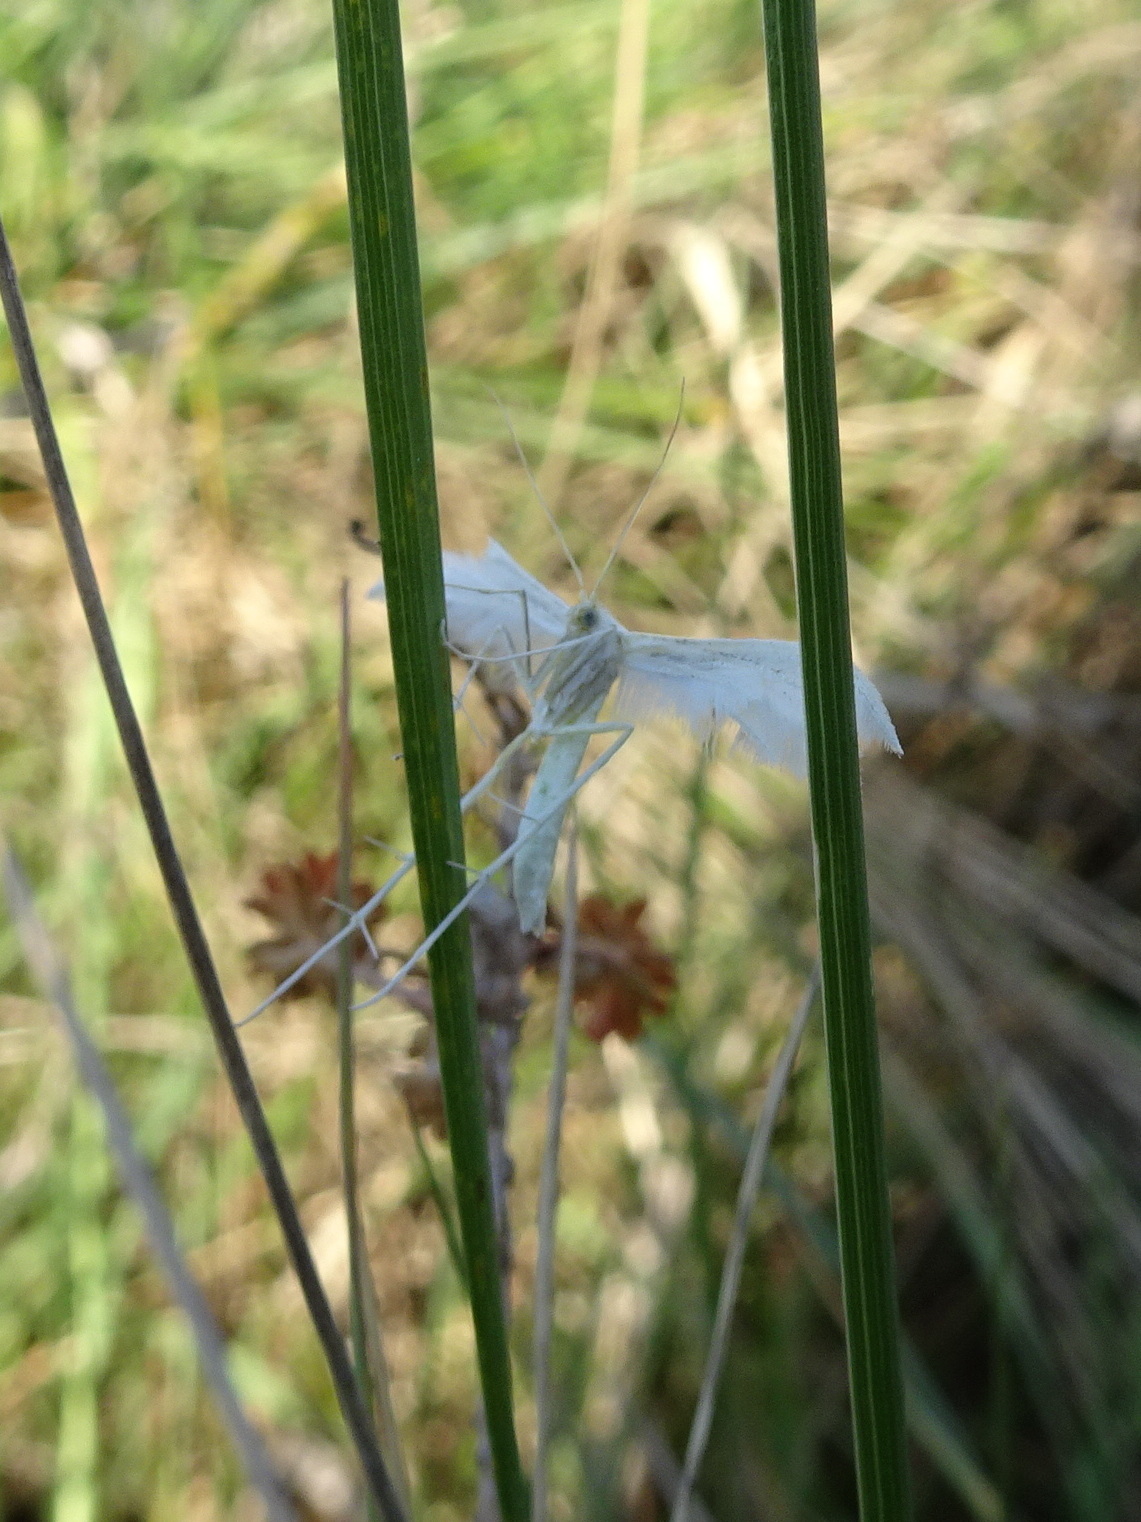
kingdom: Animalia
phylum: Arthropoda
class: Insecta
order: Lepidoptera
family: Pterophoridae
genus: Pterophorus
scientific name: Pterophorus pentadactyla
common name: White plume moth
